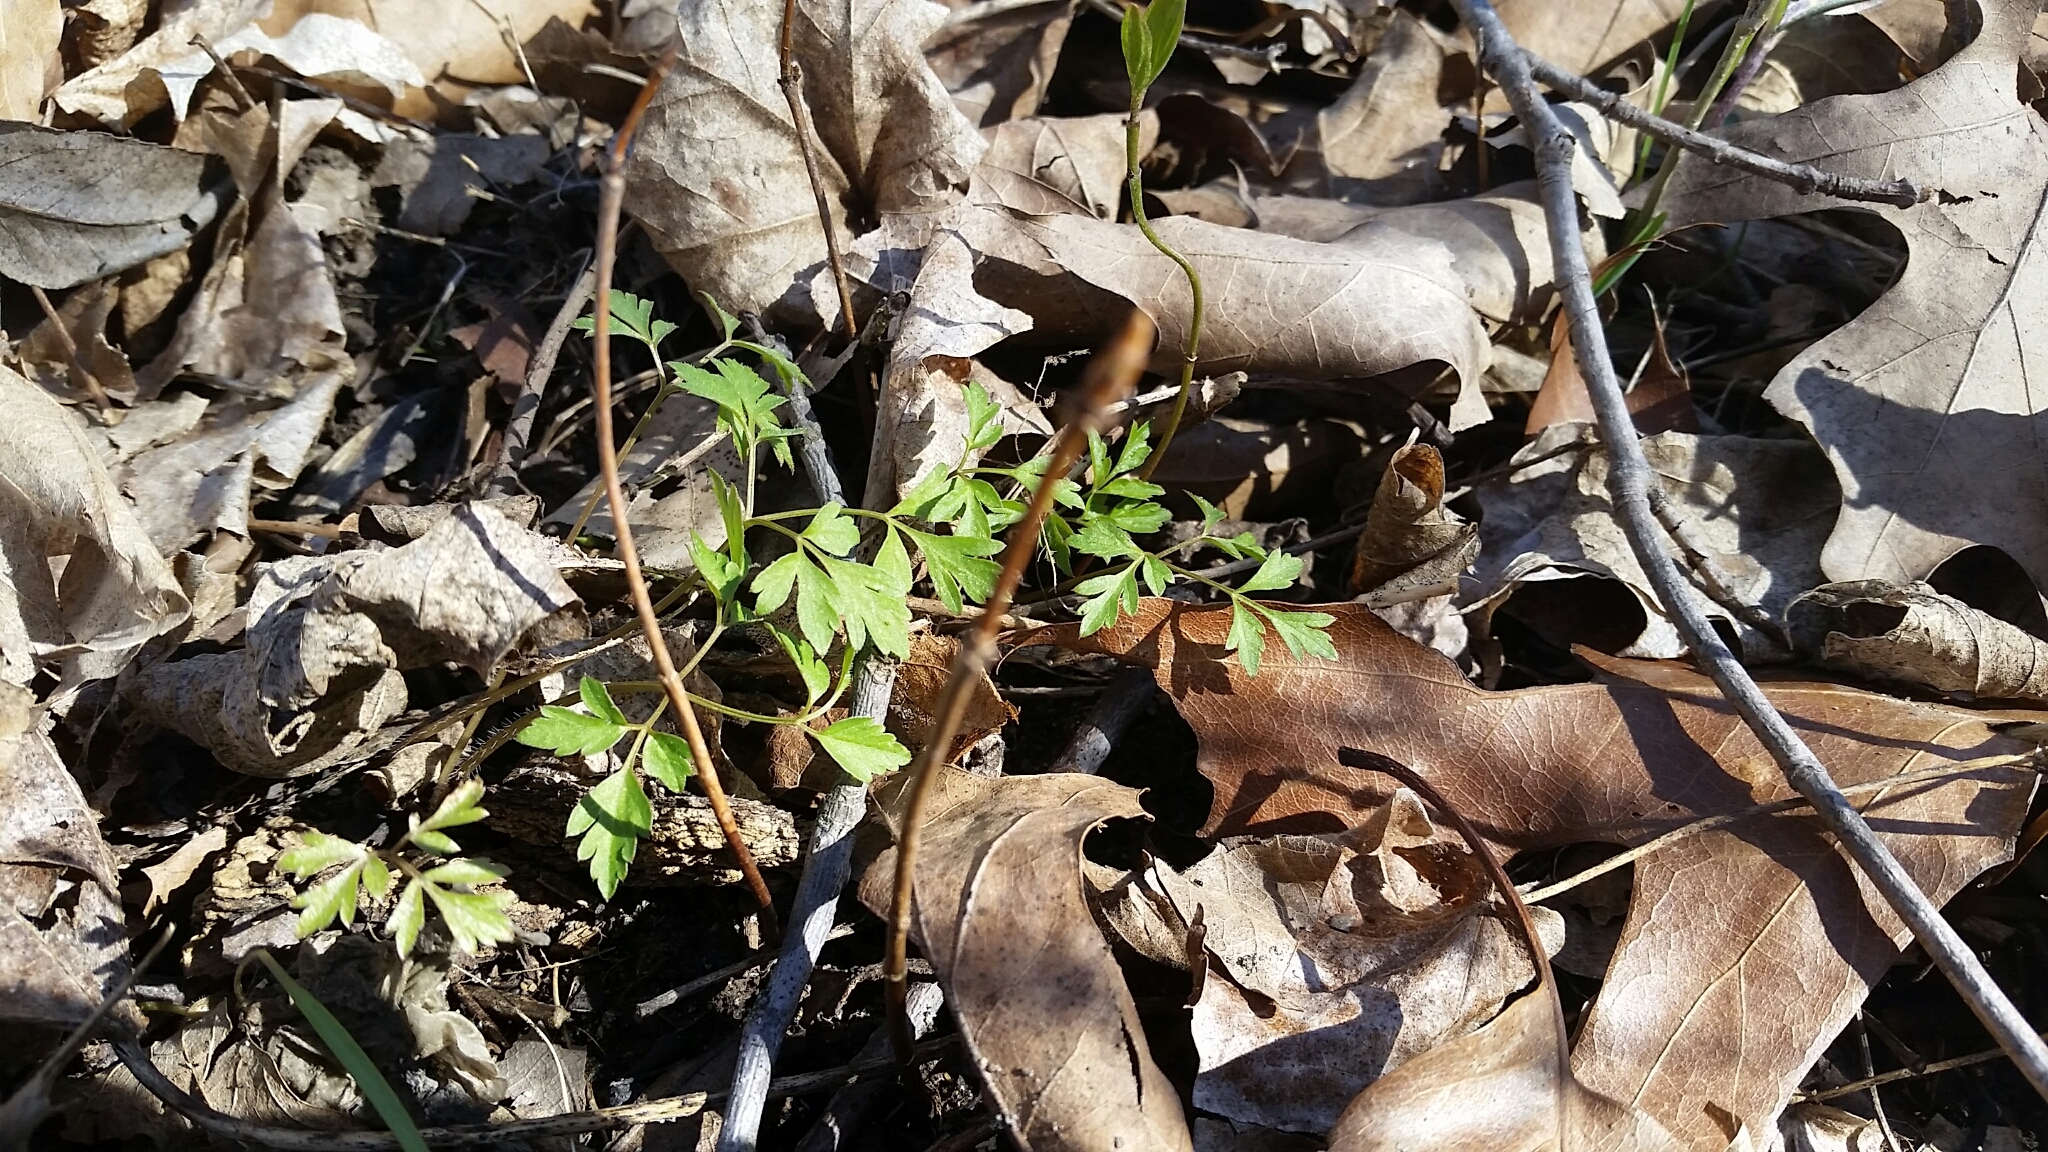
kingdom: Plantae
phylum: Tracheophyta
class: Magnoliopsida
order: Apiales
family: Apiaceae
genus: Osmorhiza
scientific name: Osmorhiza
